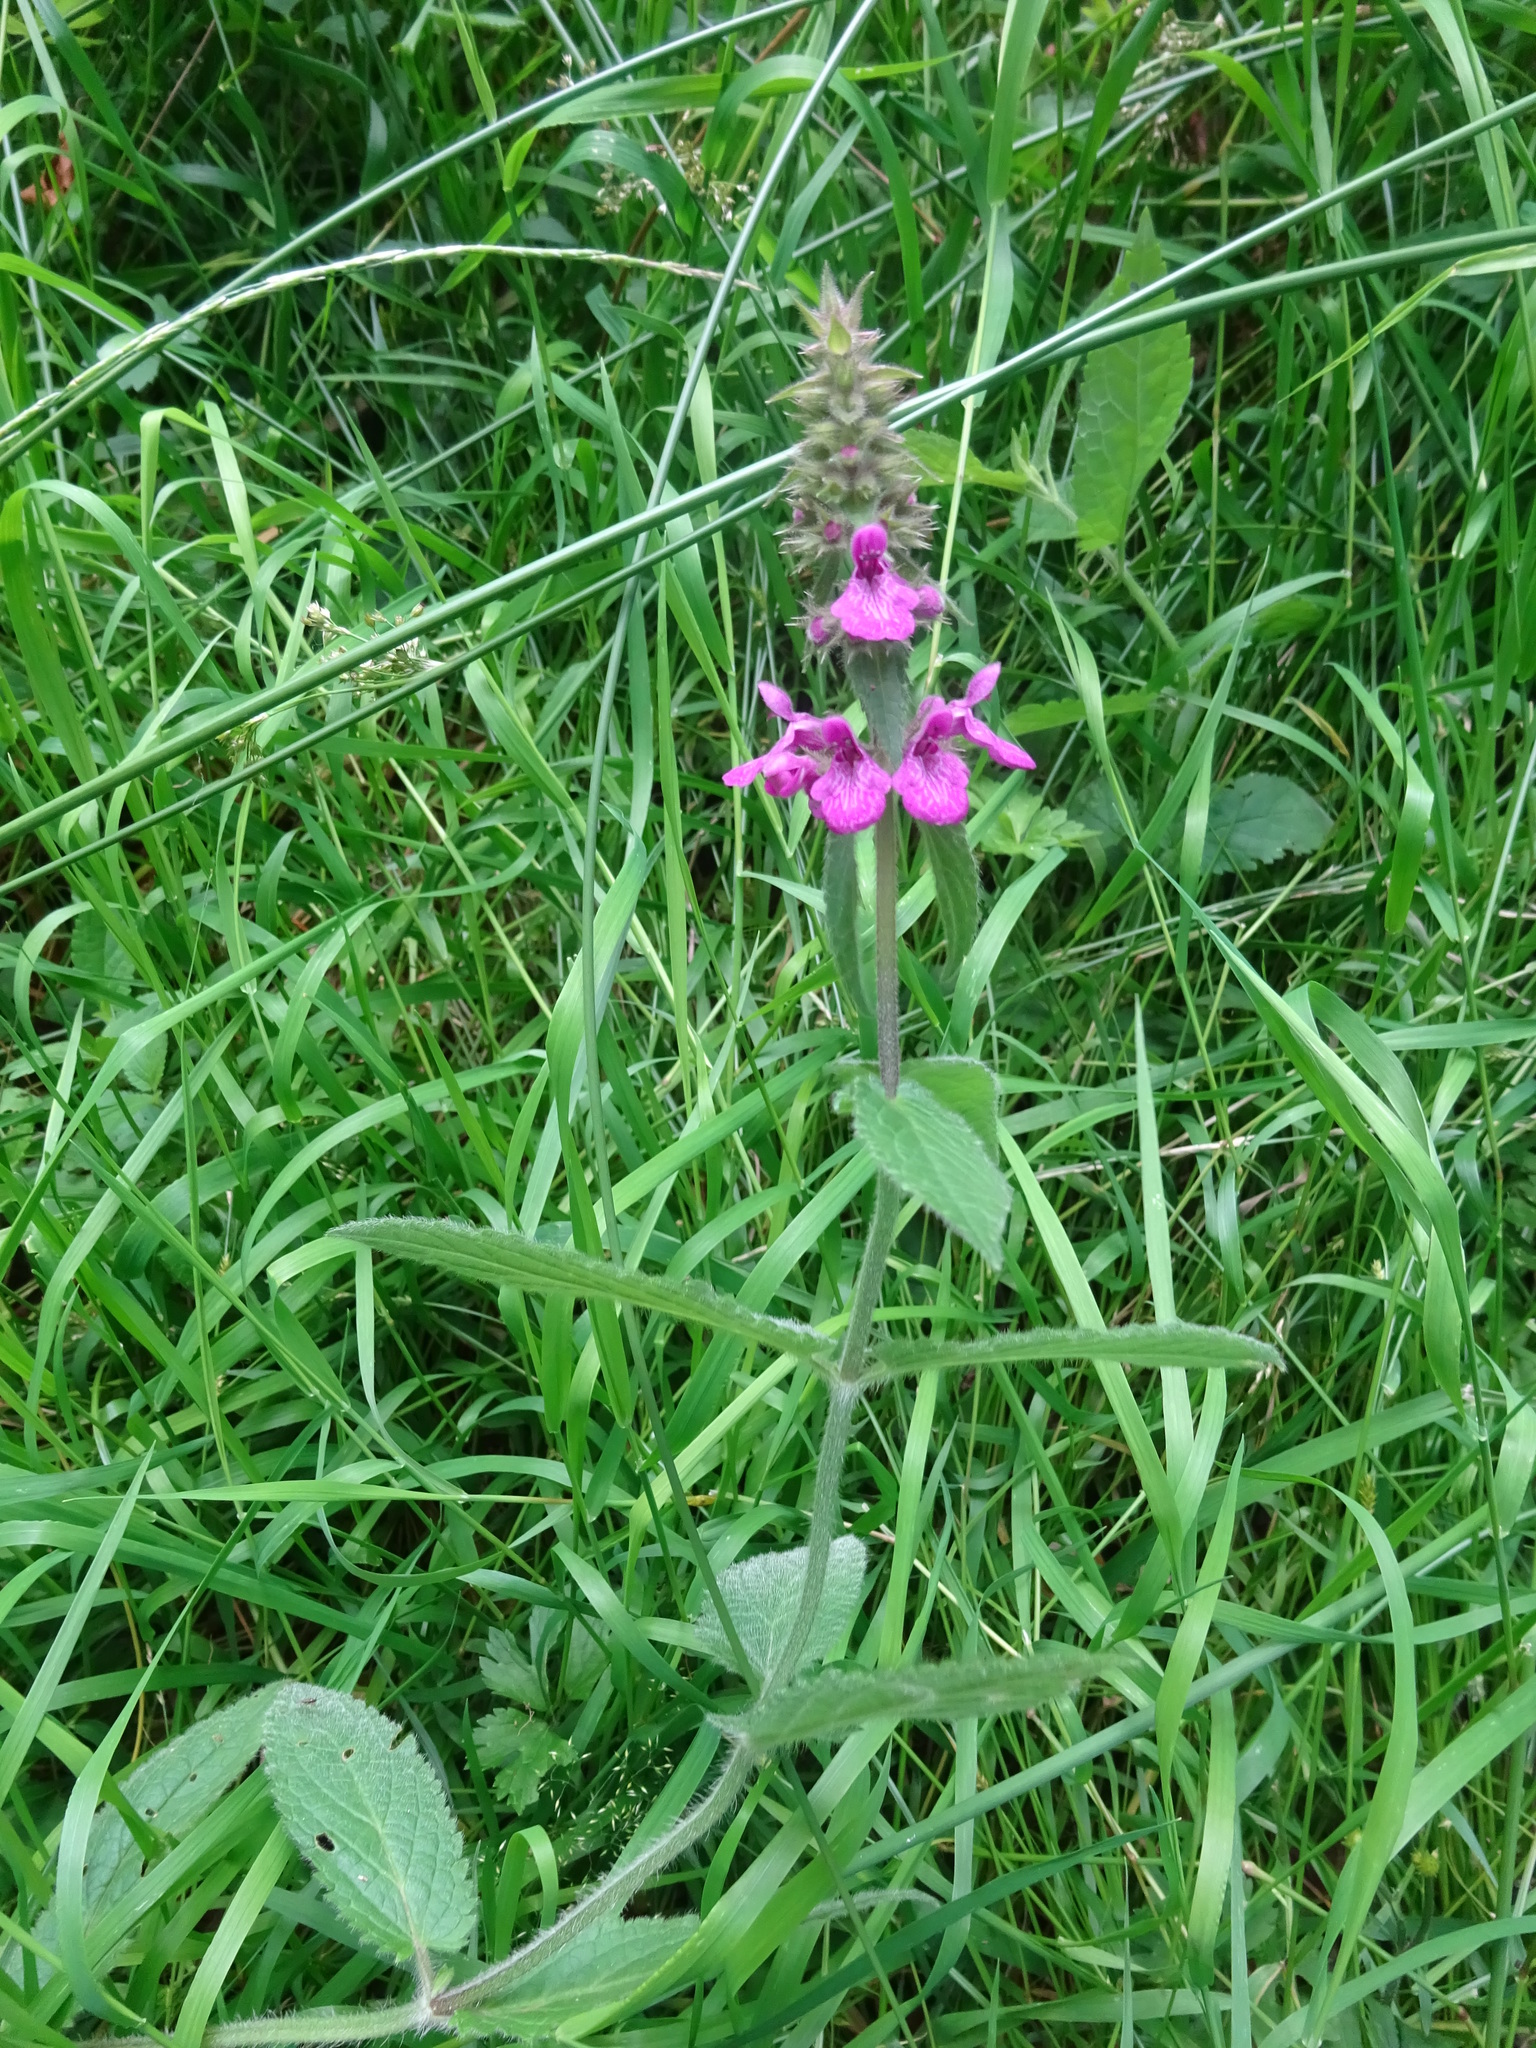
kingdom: Plantae
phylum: Tracheophyta
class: Magnoliopsida
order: Lamiales
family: Lamiaceae
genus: Stachys
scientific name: Stachys palustris
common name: Marsh woundwort
